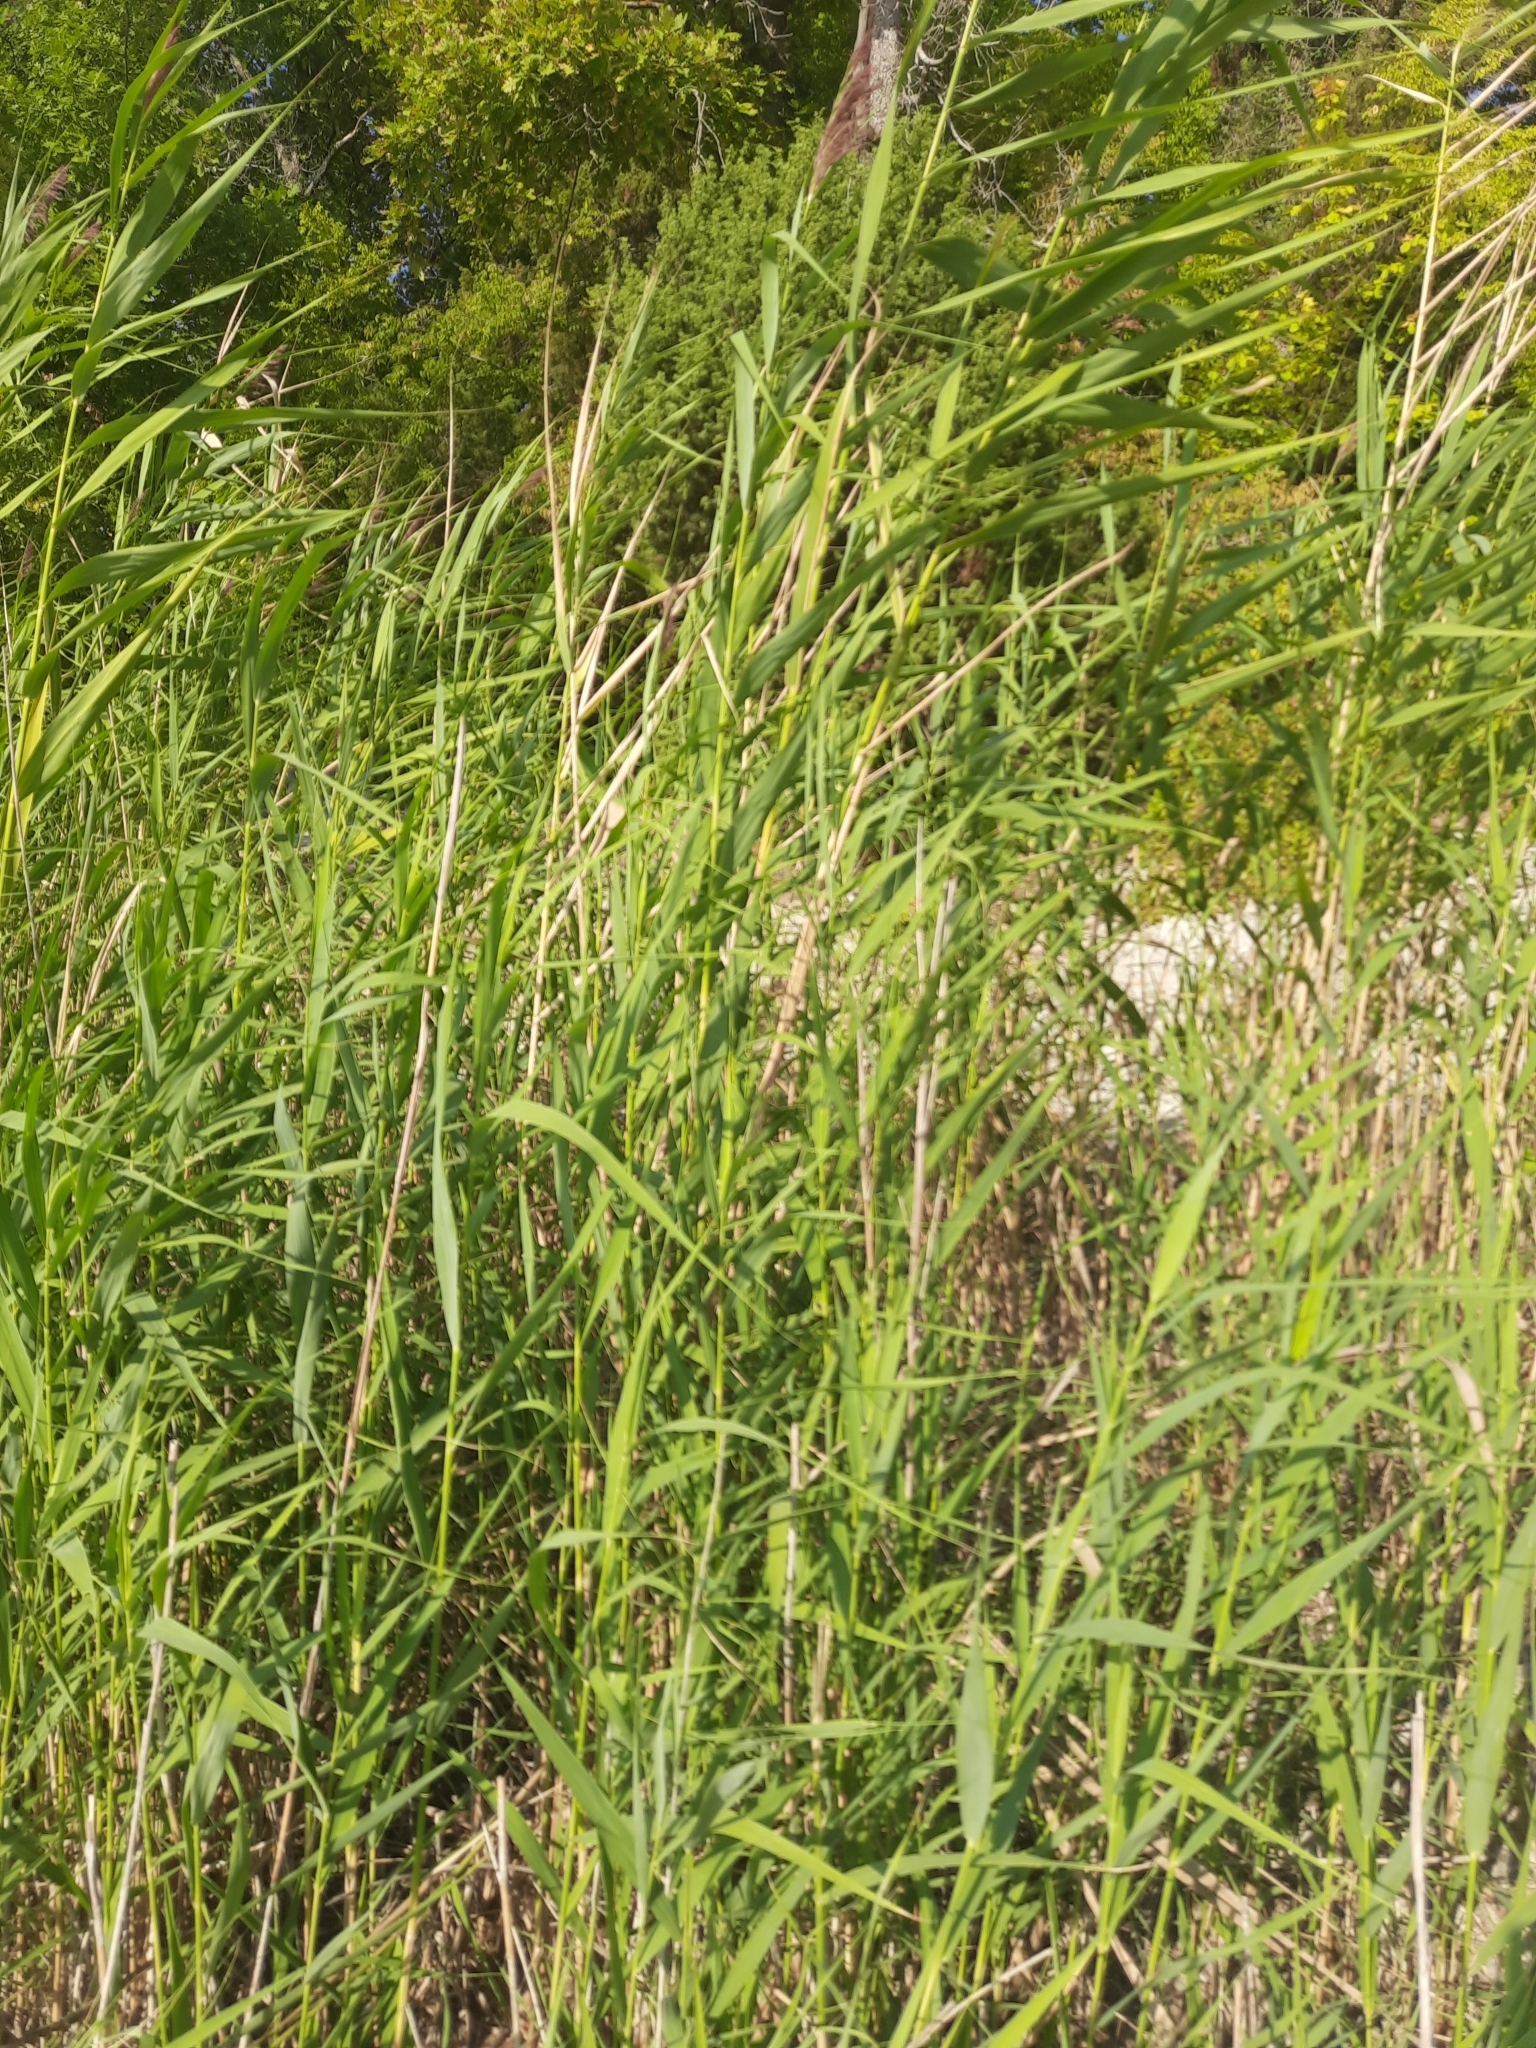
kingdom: Plantae
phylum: Tracheophyta
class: Liliopsida
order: Poales
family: Poaceae
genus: Phragmites
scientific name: Phragmites australis
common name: Common reed
